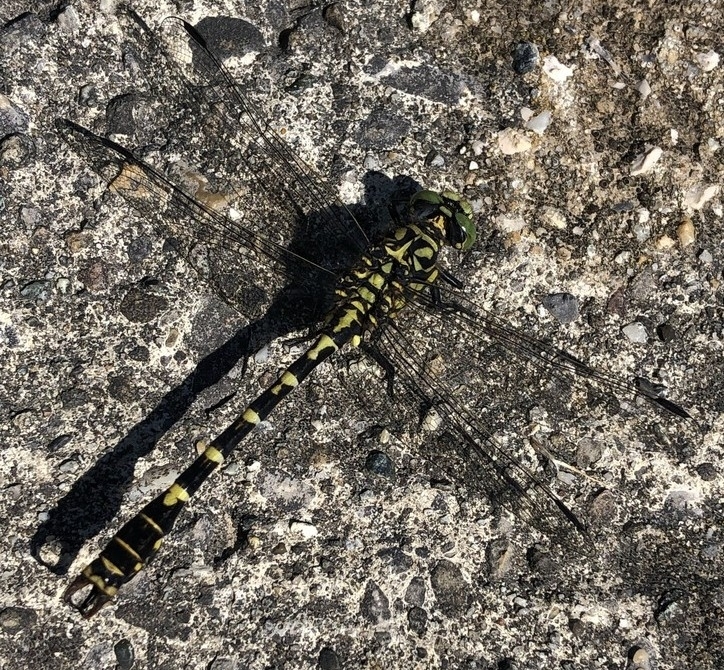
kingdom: Animalia
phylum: Arthropoda
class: Insecta
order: Odonata
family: Gomphidae
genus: Onychogomphus
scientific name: Onychogomphus forcipatus
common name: Small pincertail
